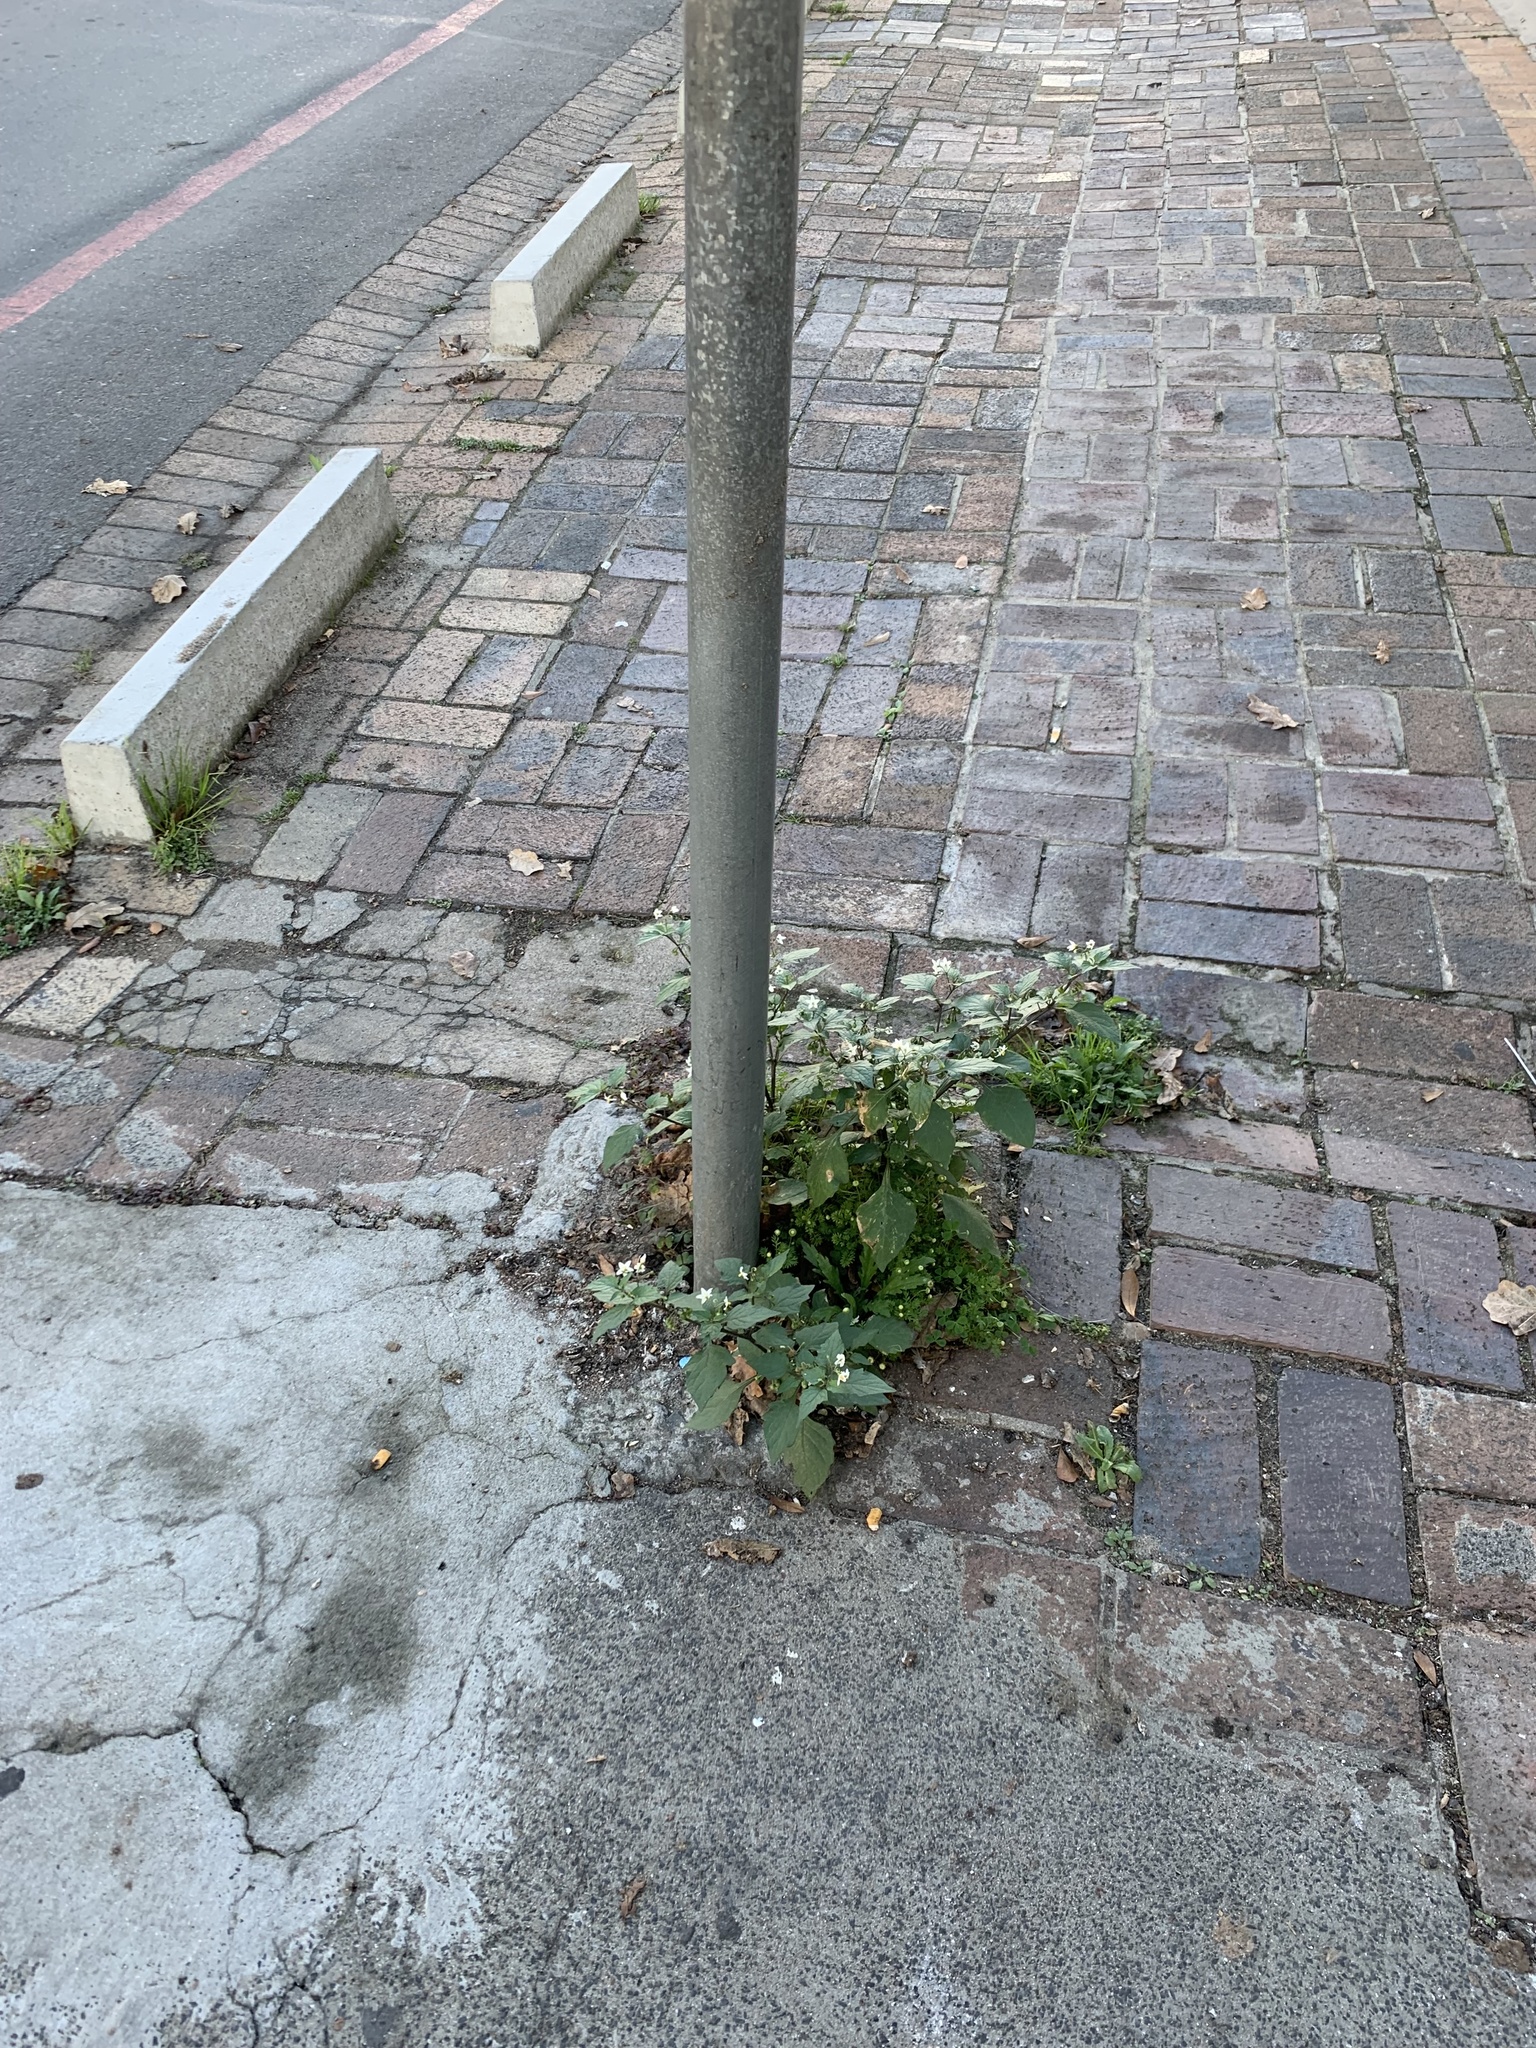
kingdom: Plantae
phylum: Tracheophyta
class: Magnoliopsida
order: Solanales
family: Solanaceae
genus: Solanum
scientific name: Solanum nigrum
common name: Black nightshade
